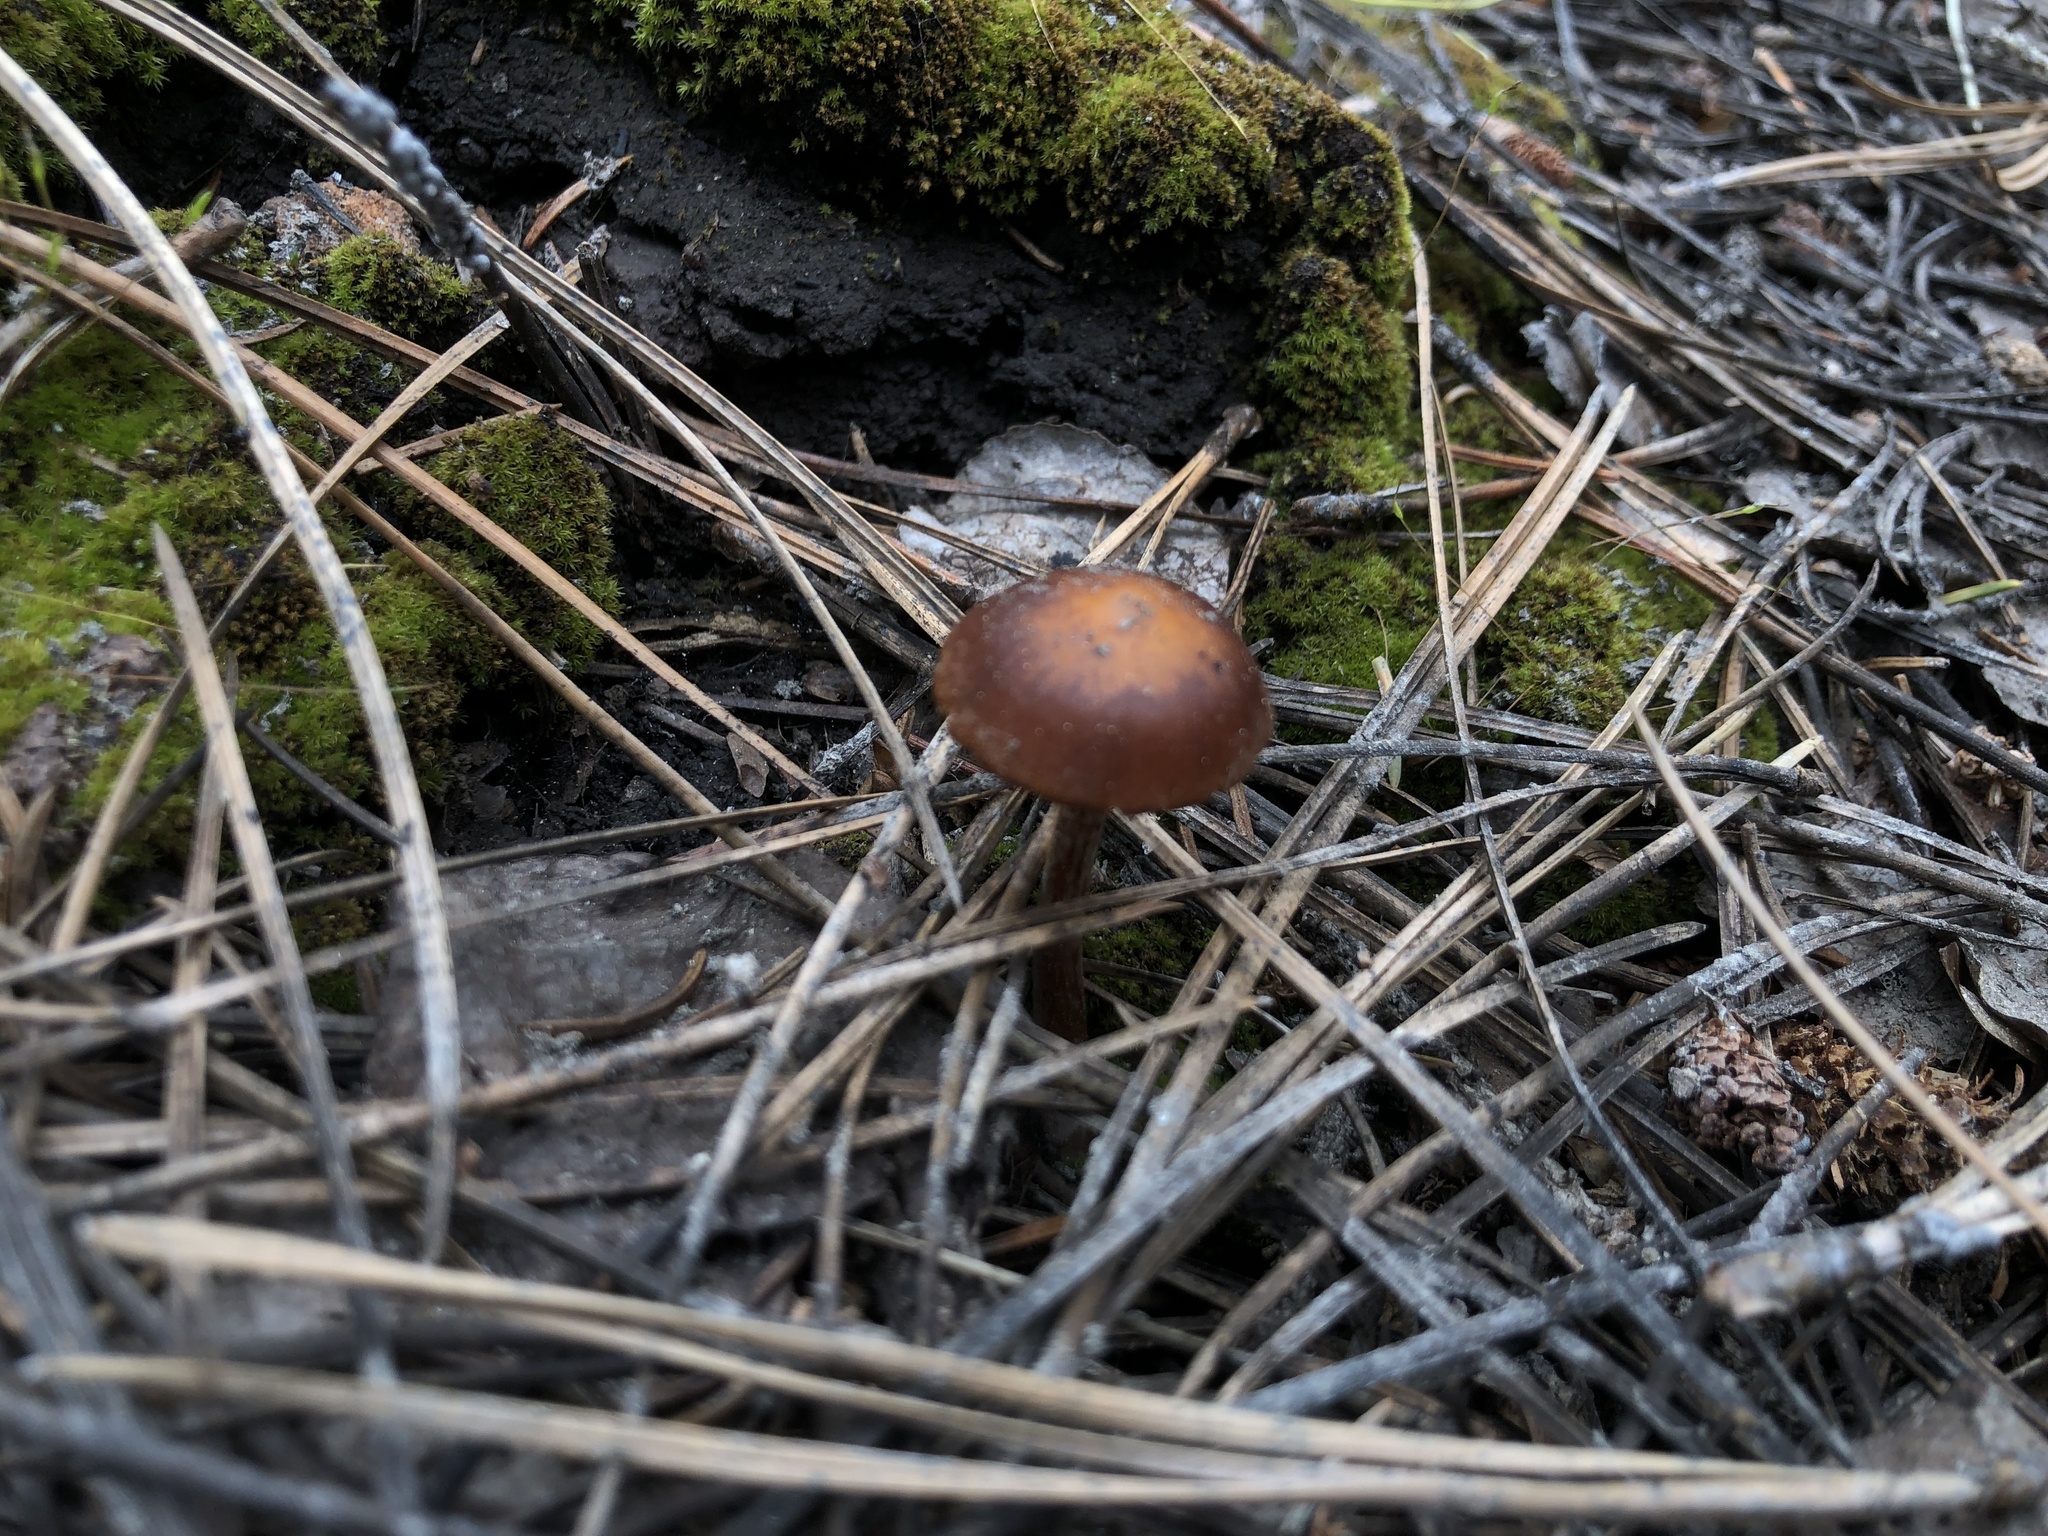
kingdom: Fungi
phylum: Basidiomycota
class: Agaricomycetes
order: Agaricales
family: Crassisporiaceae
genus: Crassisporium
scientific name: Crassisporium funariophilum
